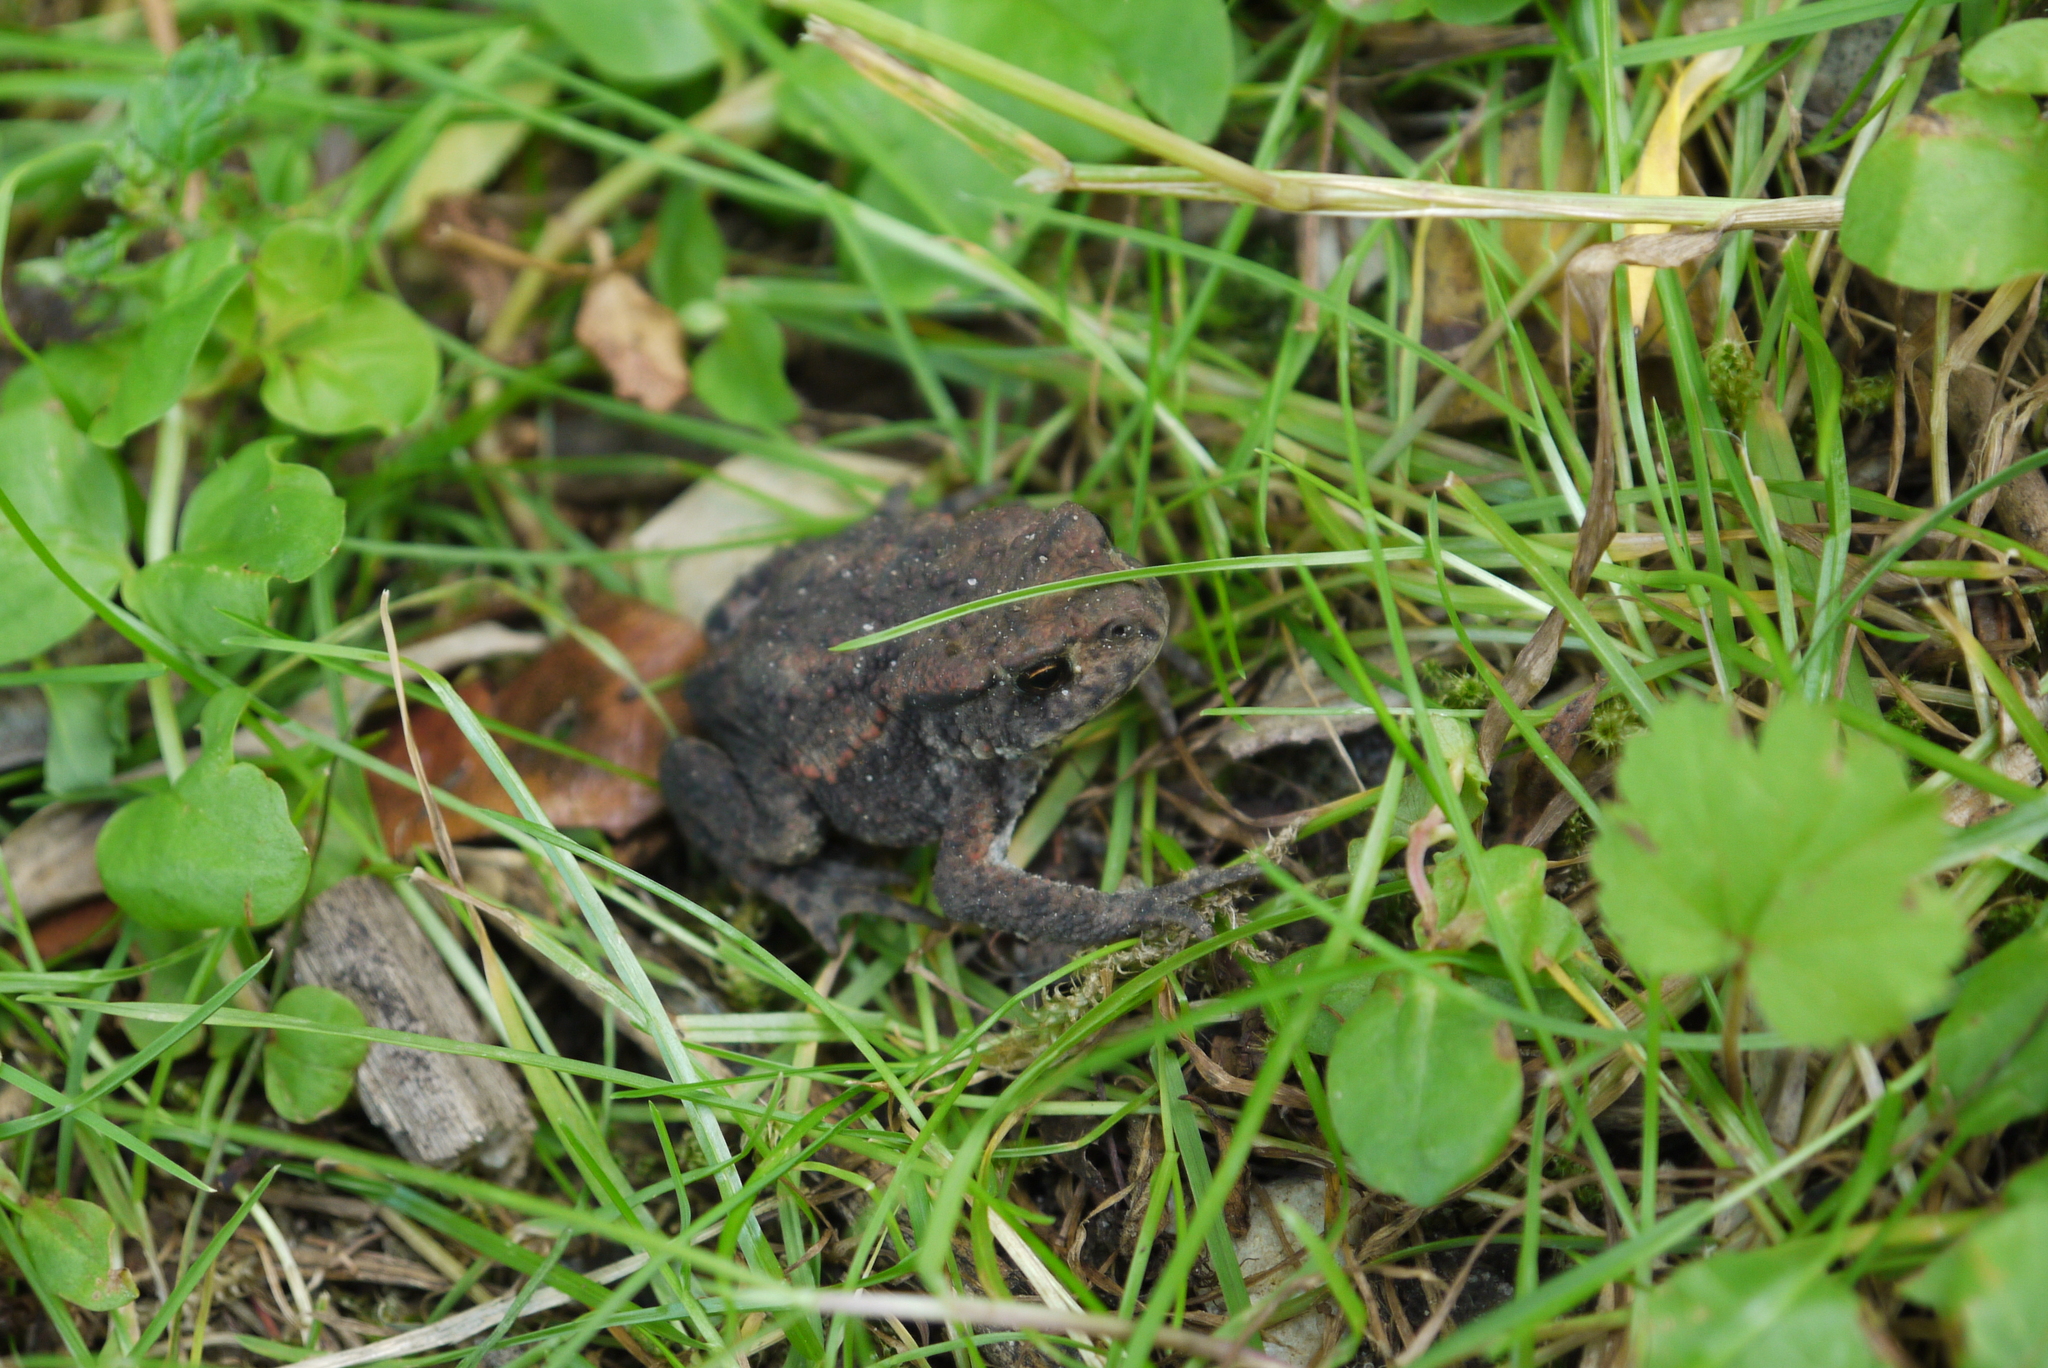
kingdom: Animalia
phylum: Chordata
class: Amphibia
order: Anura
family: Bufonidae
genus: Bufo
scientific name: Bufo bufo
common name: Common toad
